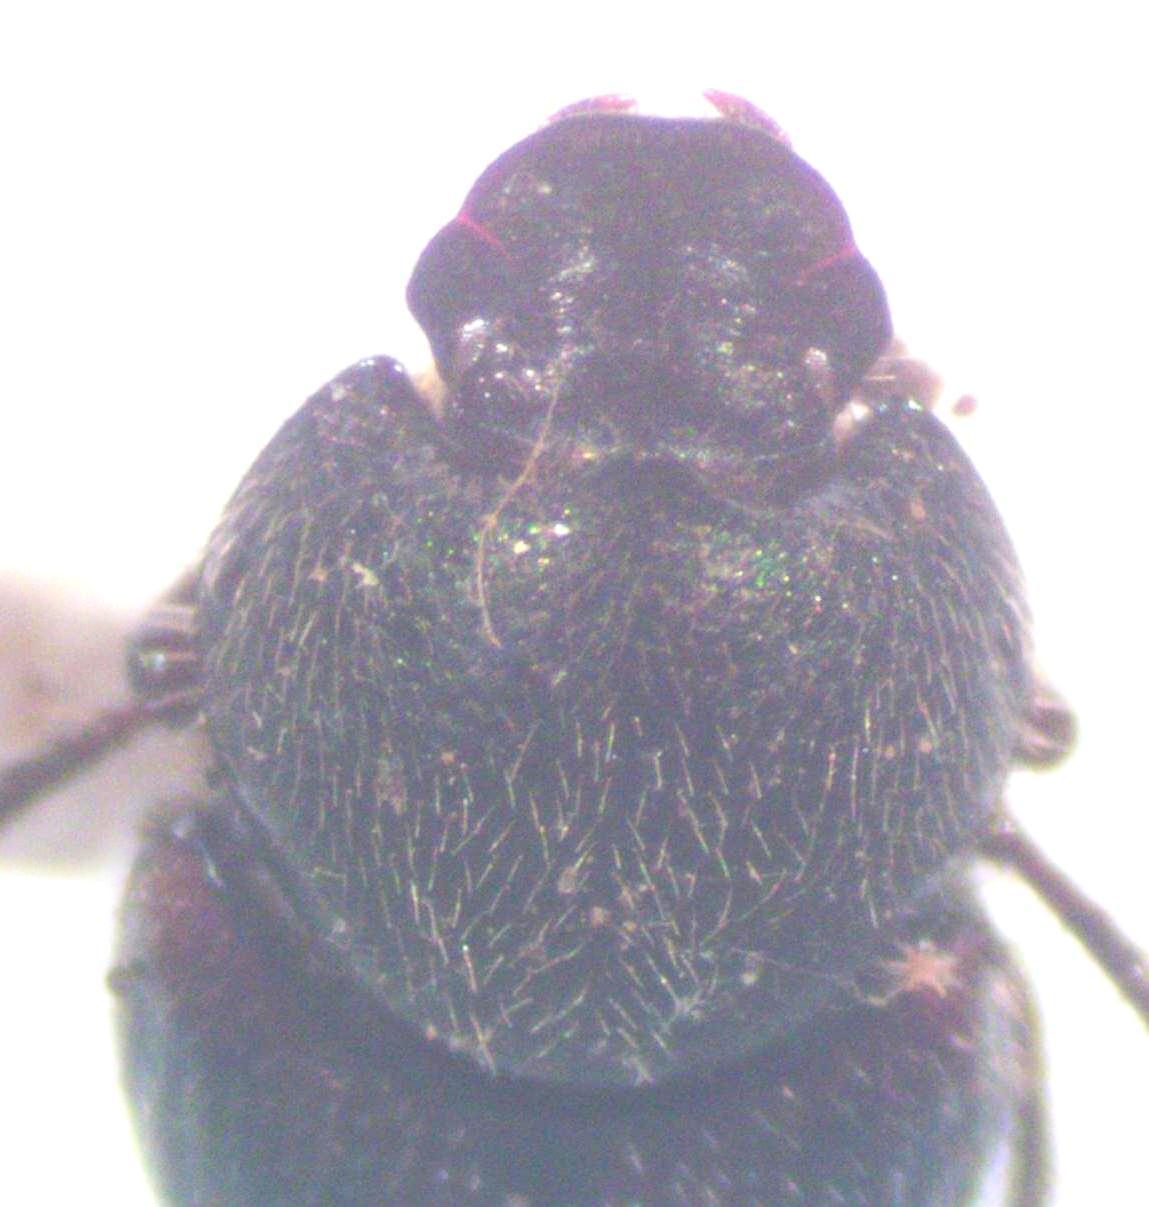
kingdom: Animalia
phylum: Arthropoda
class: Insecta
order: Coleoptera
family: Scarabaeidae
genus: Onthophagus
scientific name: Onthophagus hoepfneri
